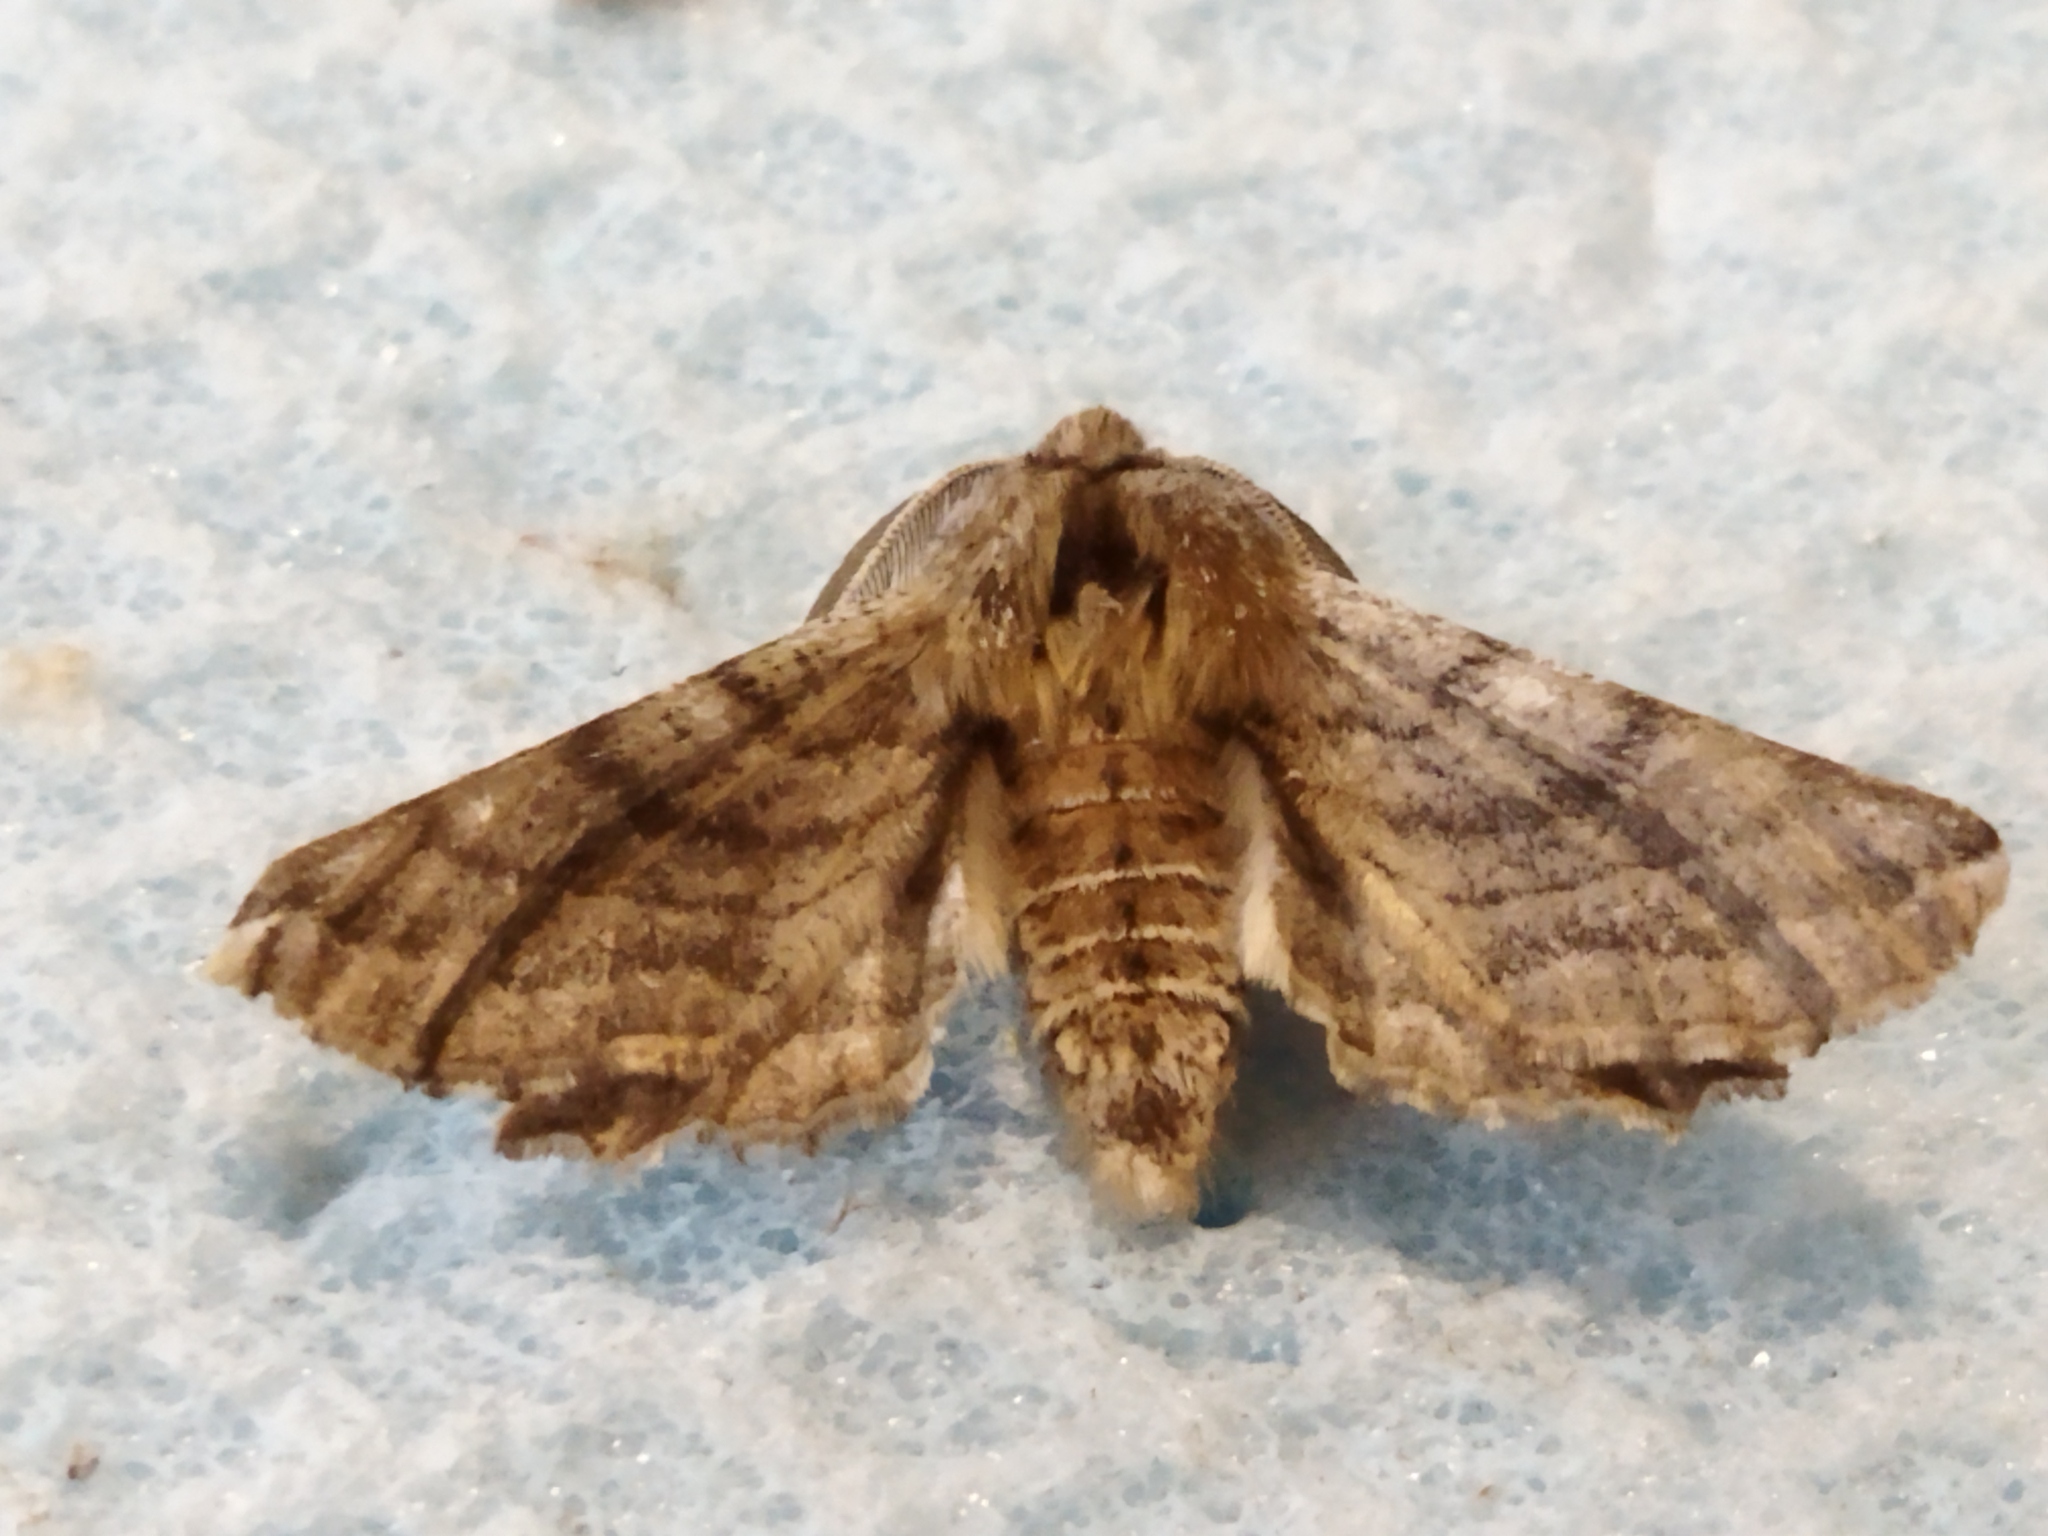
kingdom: Animalia
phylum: Arthropoda
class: Insecta
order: Lepidoptera
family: Geometridae
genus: Apochima
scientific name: Apochima flabellaria
